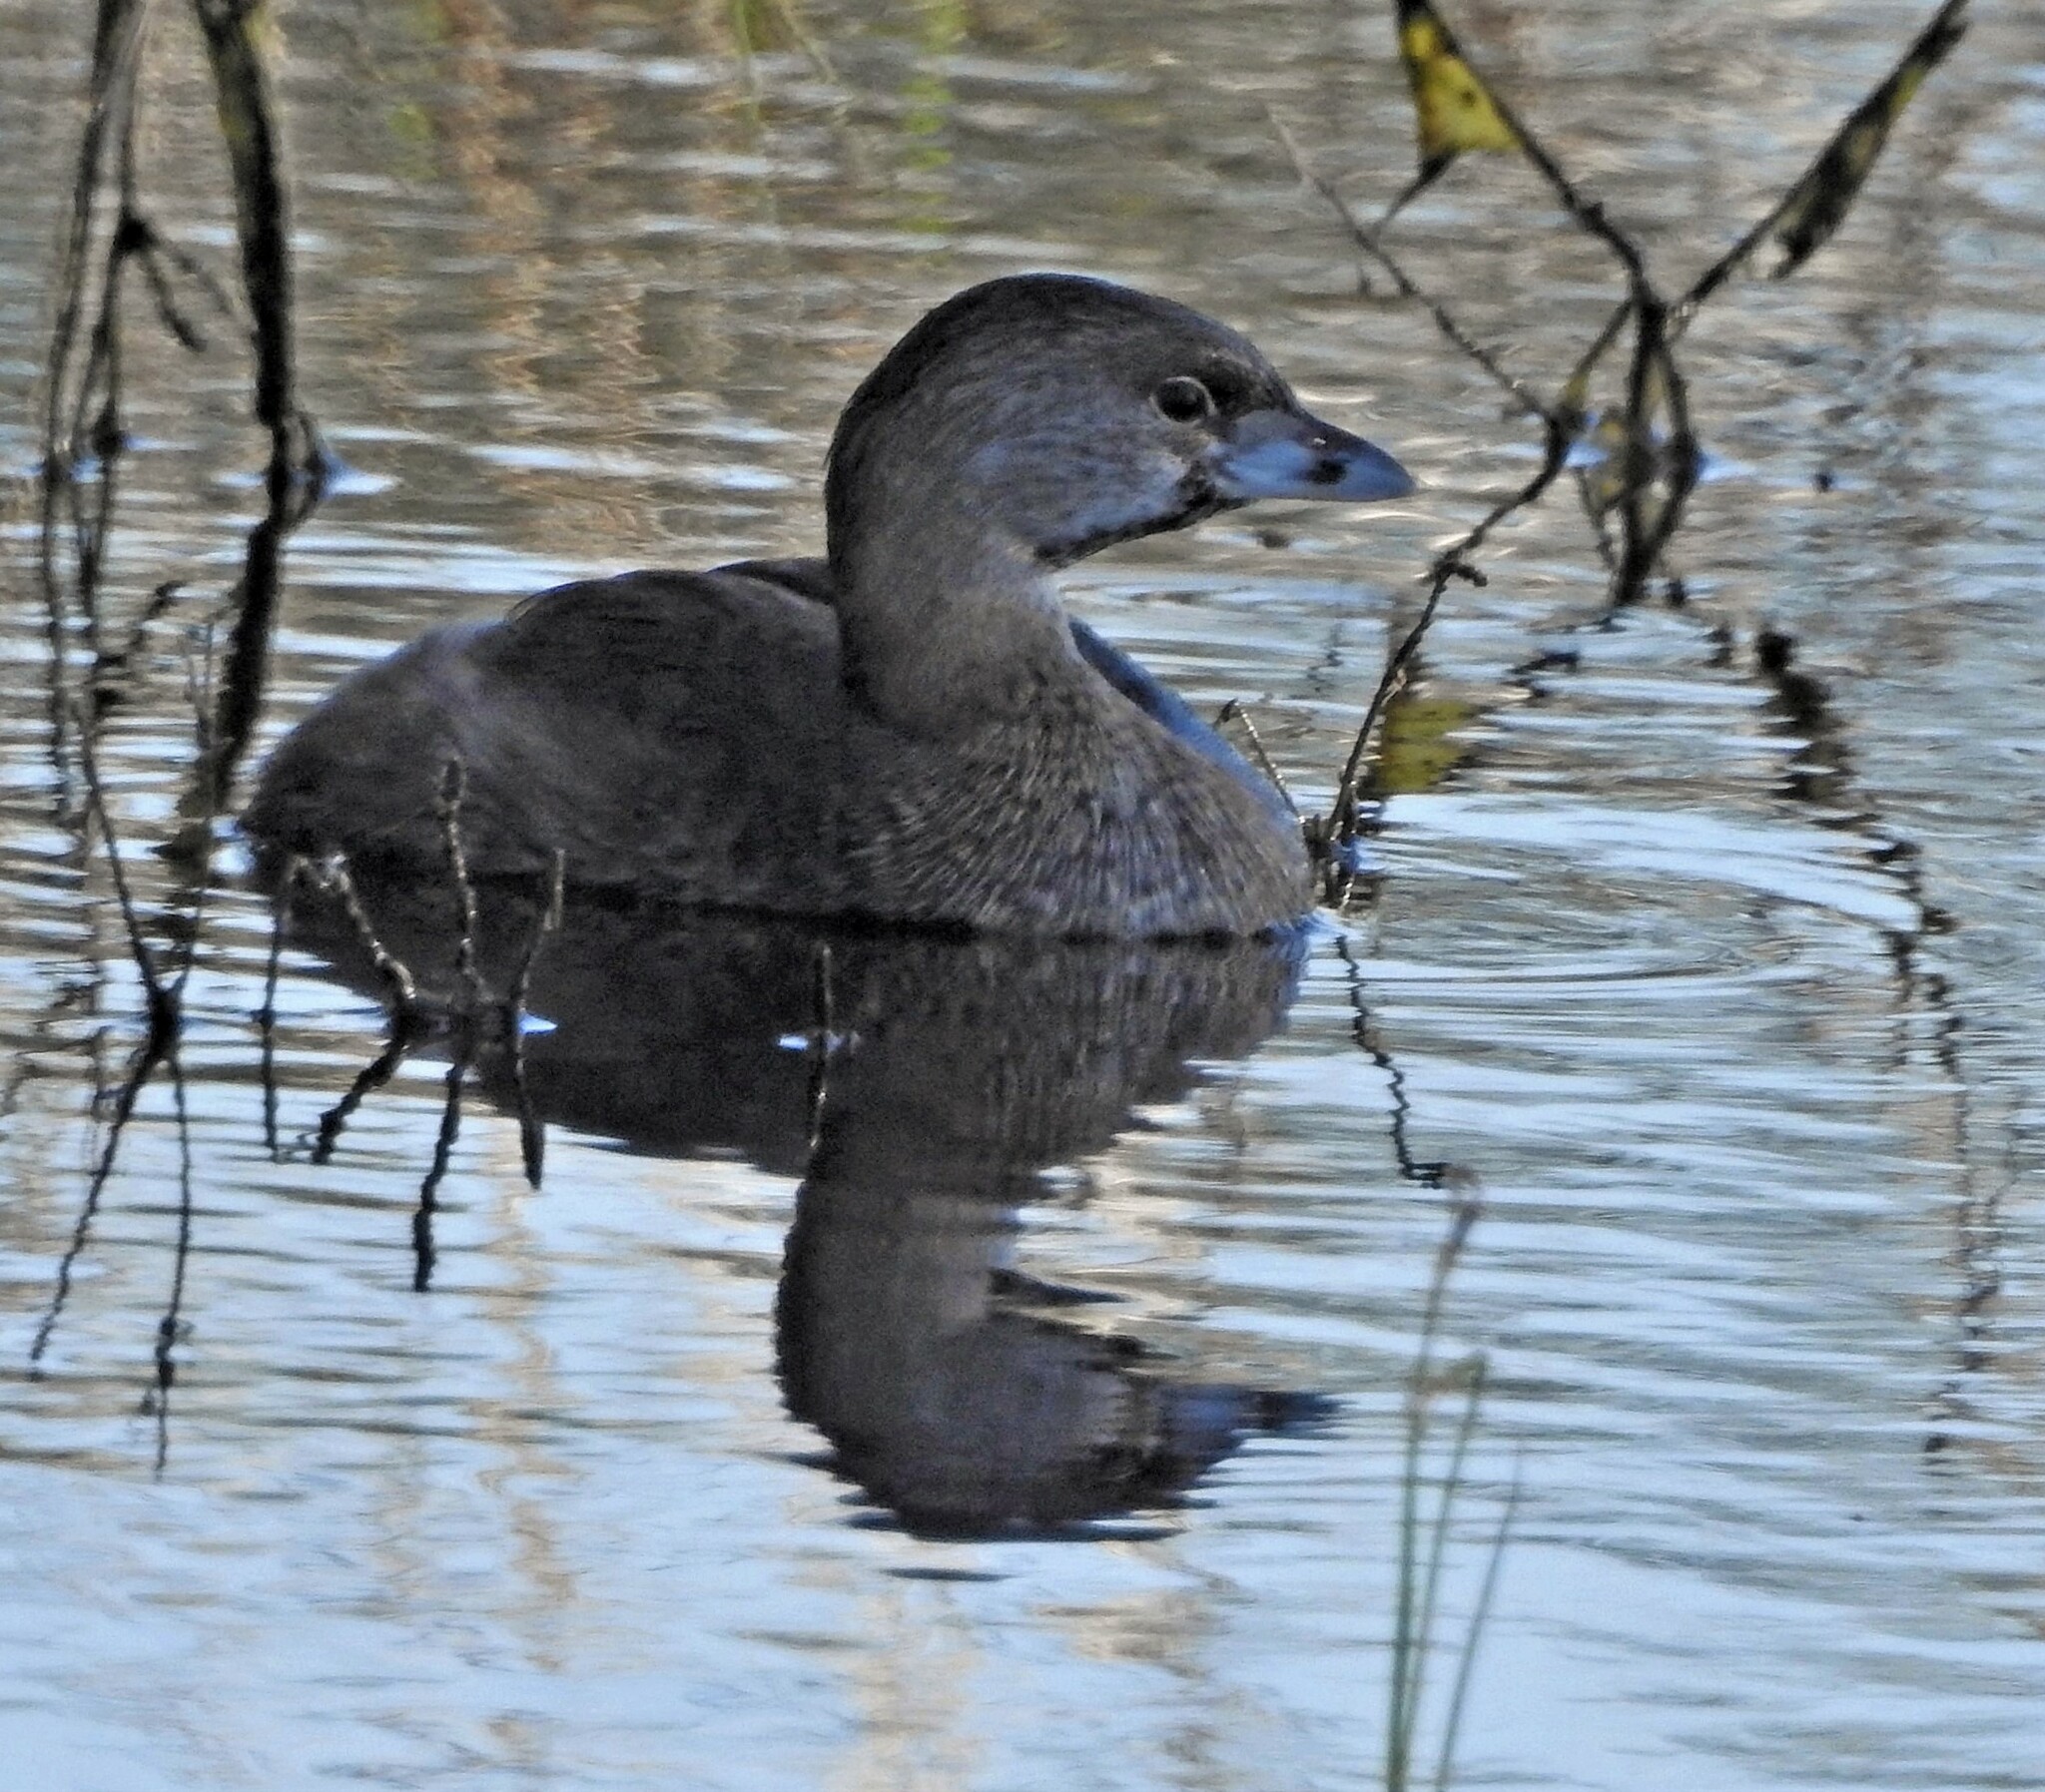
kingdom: Animalia
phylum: Chordata
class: Aves
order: Podicipediformes
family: Podicipedidae
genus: Podilymbus
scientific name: Podilymbus podiceps
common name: Pied-billed grebe
